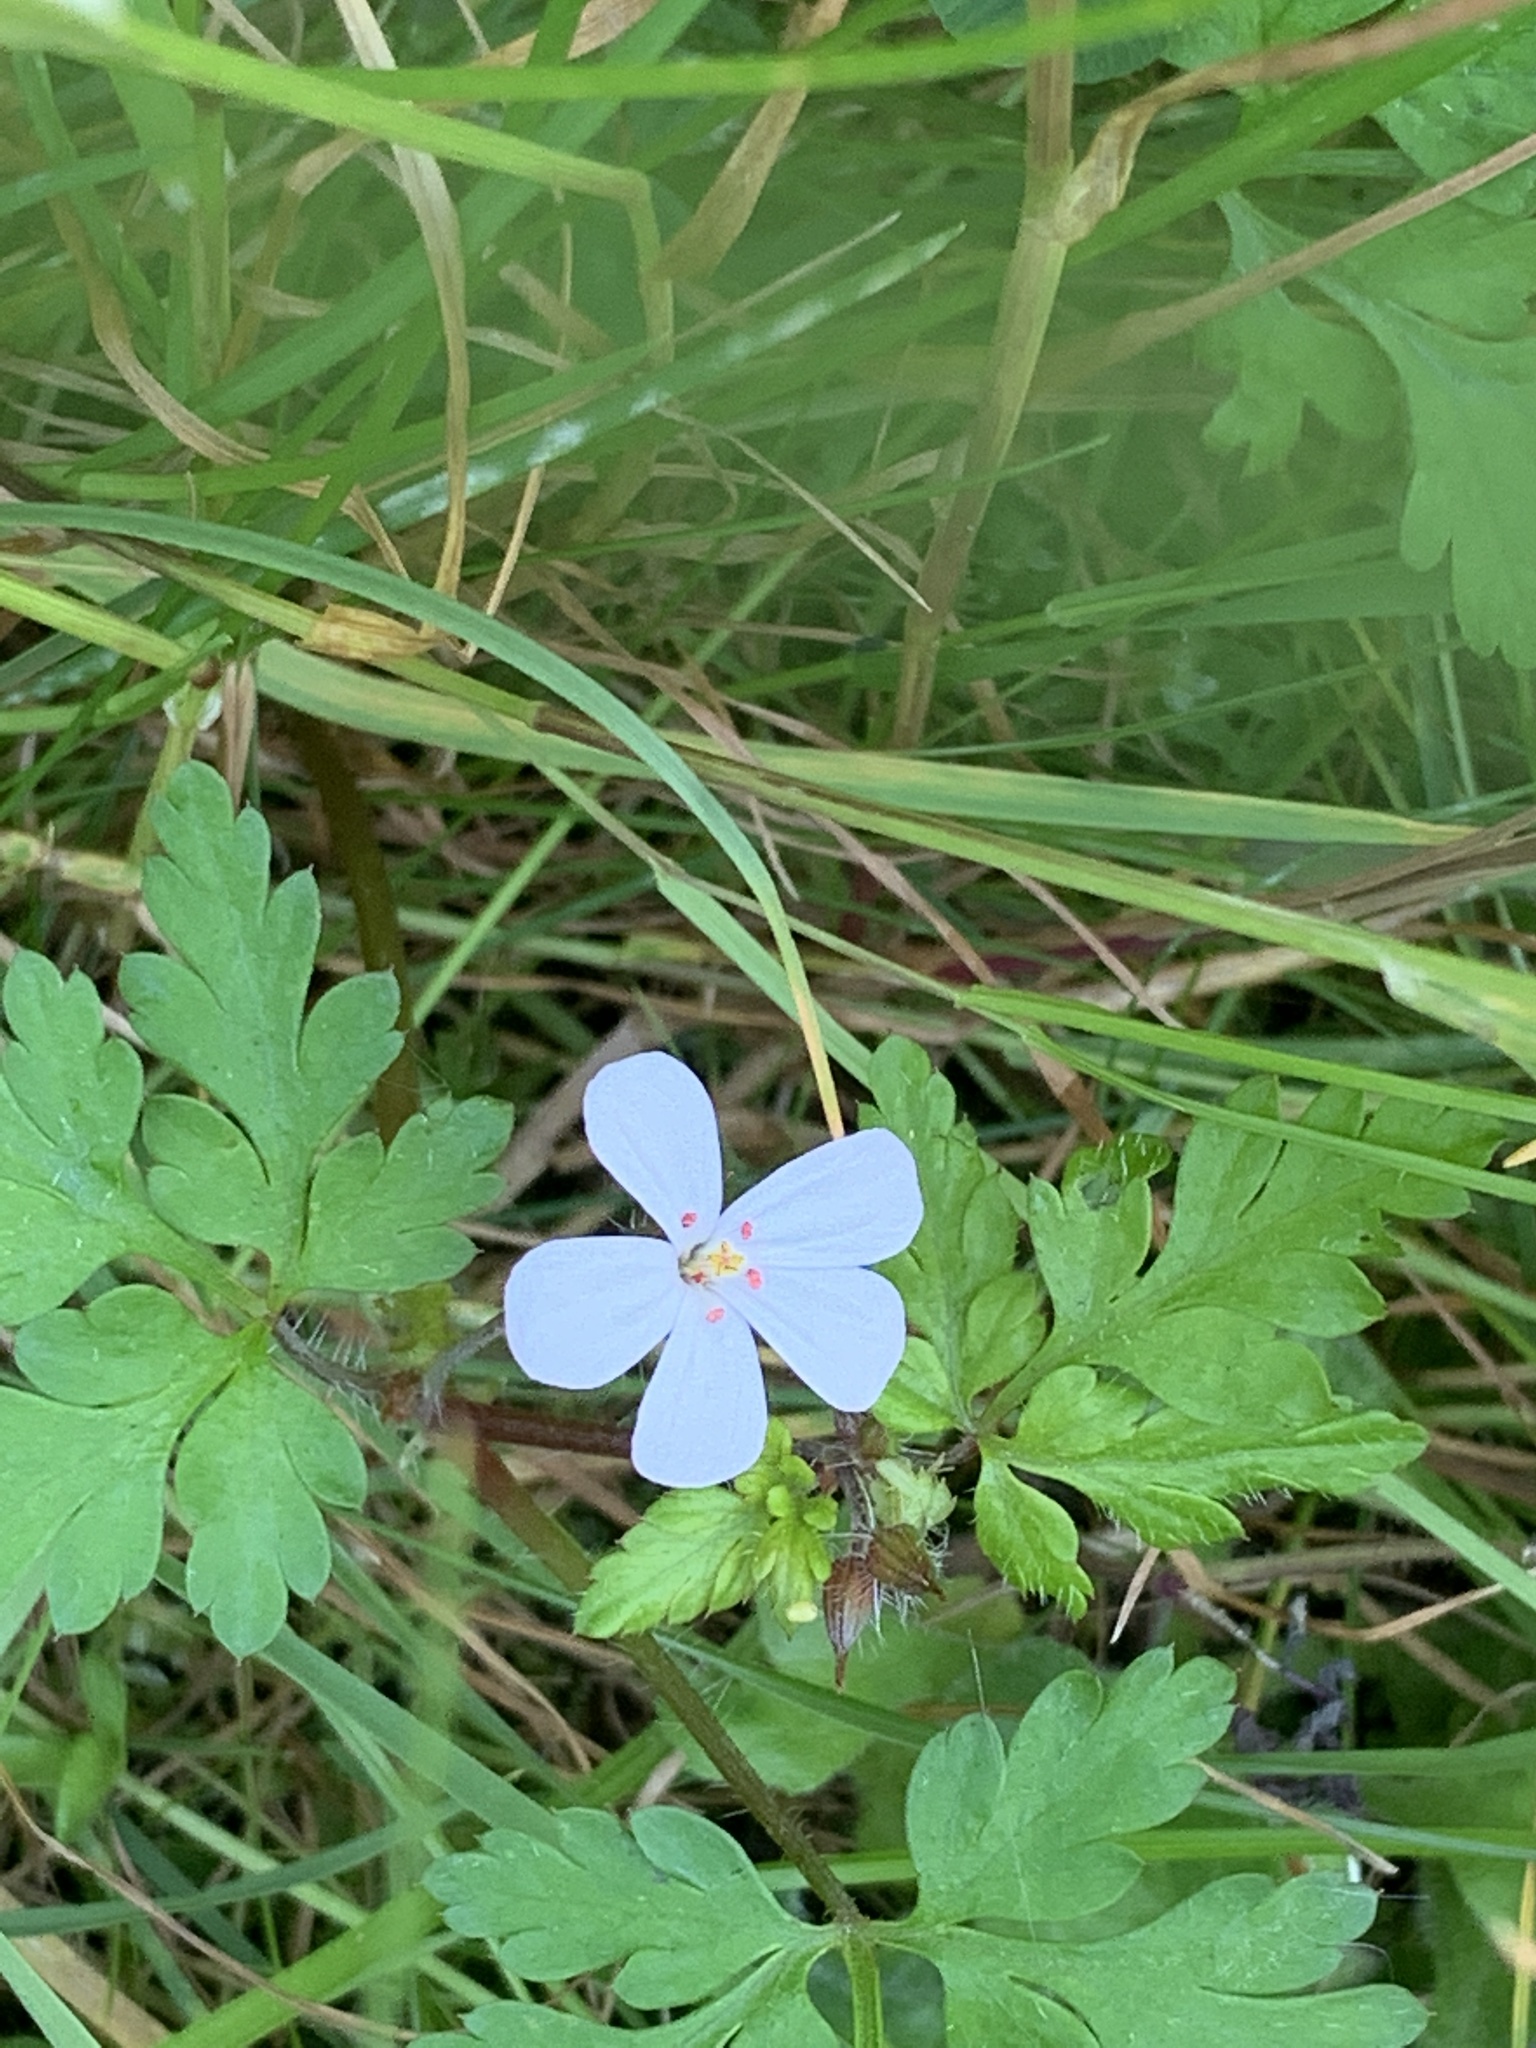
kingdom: Plantae
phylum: Tracheophyta
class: Magnoliopsida
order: Geraniales
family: Geraniaceae
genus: Geranium
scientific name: Geranium robertianum
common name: Herb-robert
